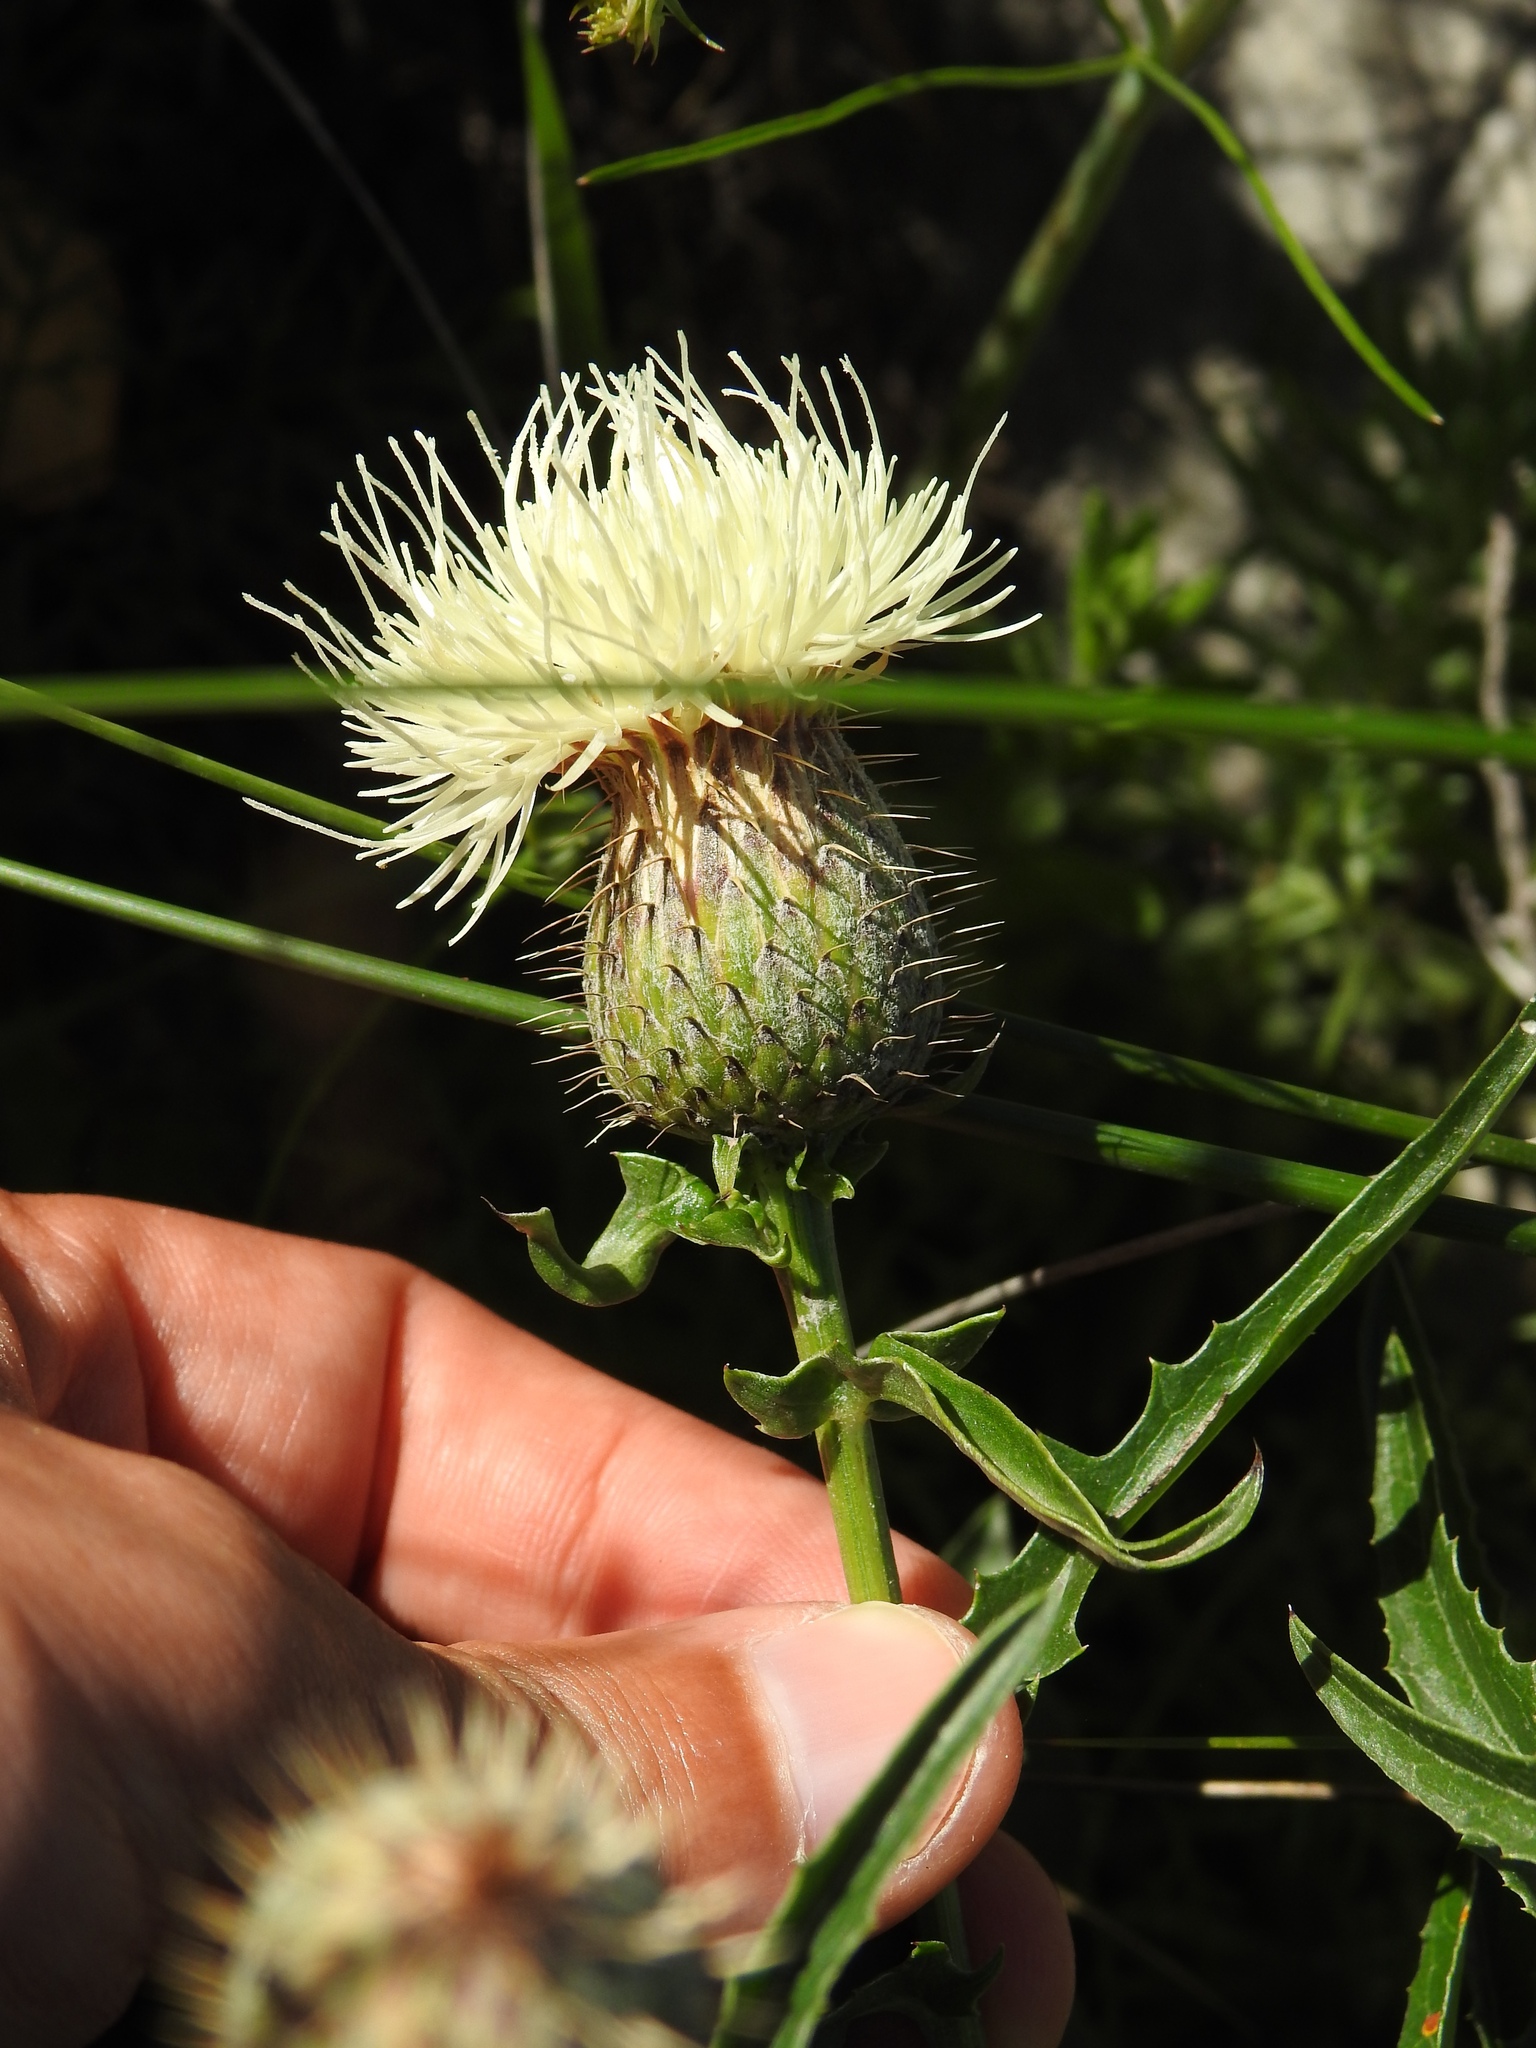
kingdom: Plantae
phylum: Tracheophyta
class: Magnoliopsida
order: Asterales
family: Asteraceae
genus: Klasea
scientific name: Klasea flavescens
